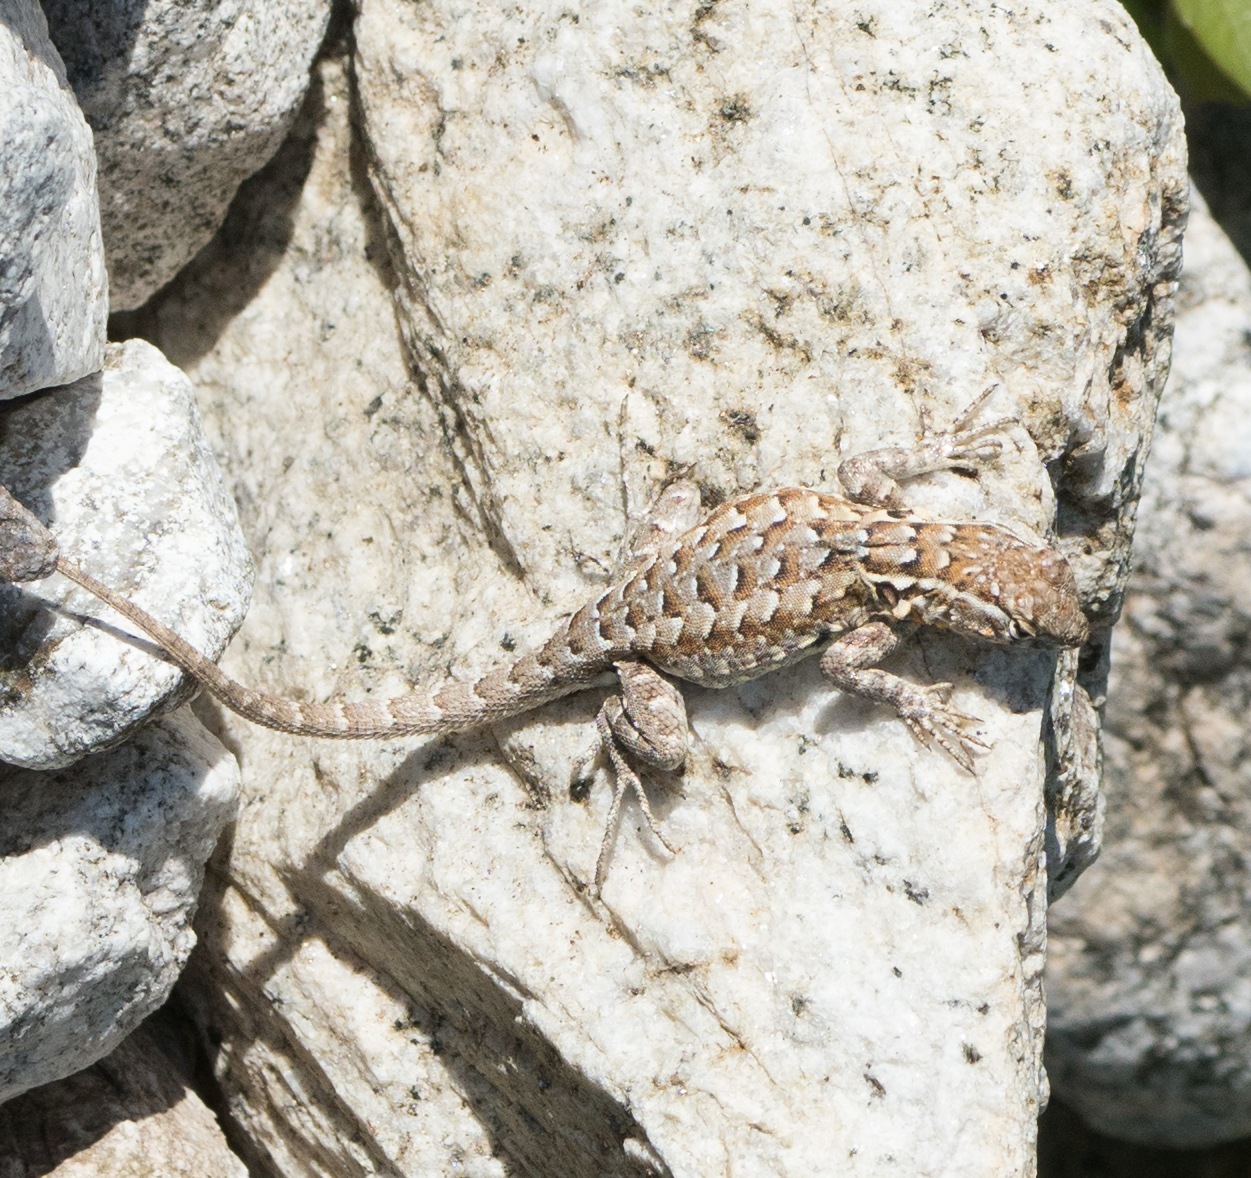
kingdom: Animalia
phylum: Chordata
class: Squamata
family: Phrynosomatidae
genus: Uta
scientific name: Uta stansburiana
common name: Side-blotched lizard
